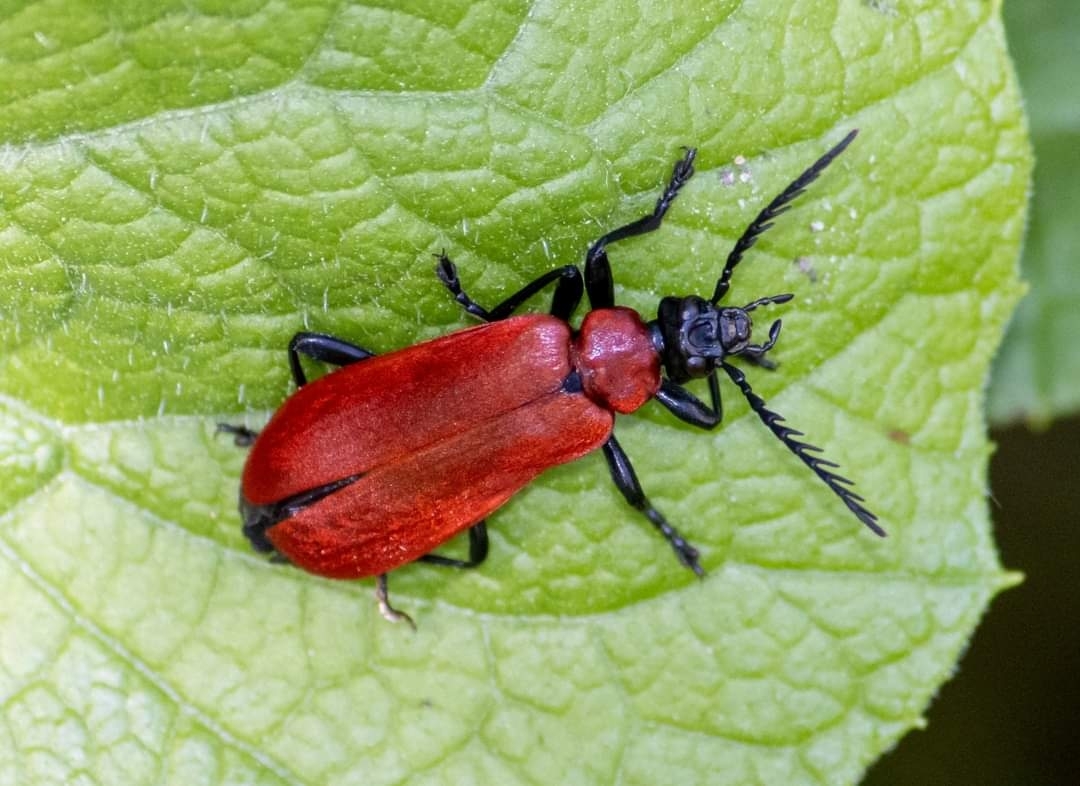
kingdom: Animalia
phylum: Arthropoda
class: Insecta
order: Coleoptera
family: Pyrochroidae
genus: Pyrochroa
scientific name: Pyrochroa coccinea
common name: Black-headed cardinal beetle
